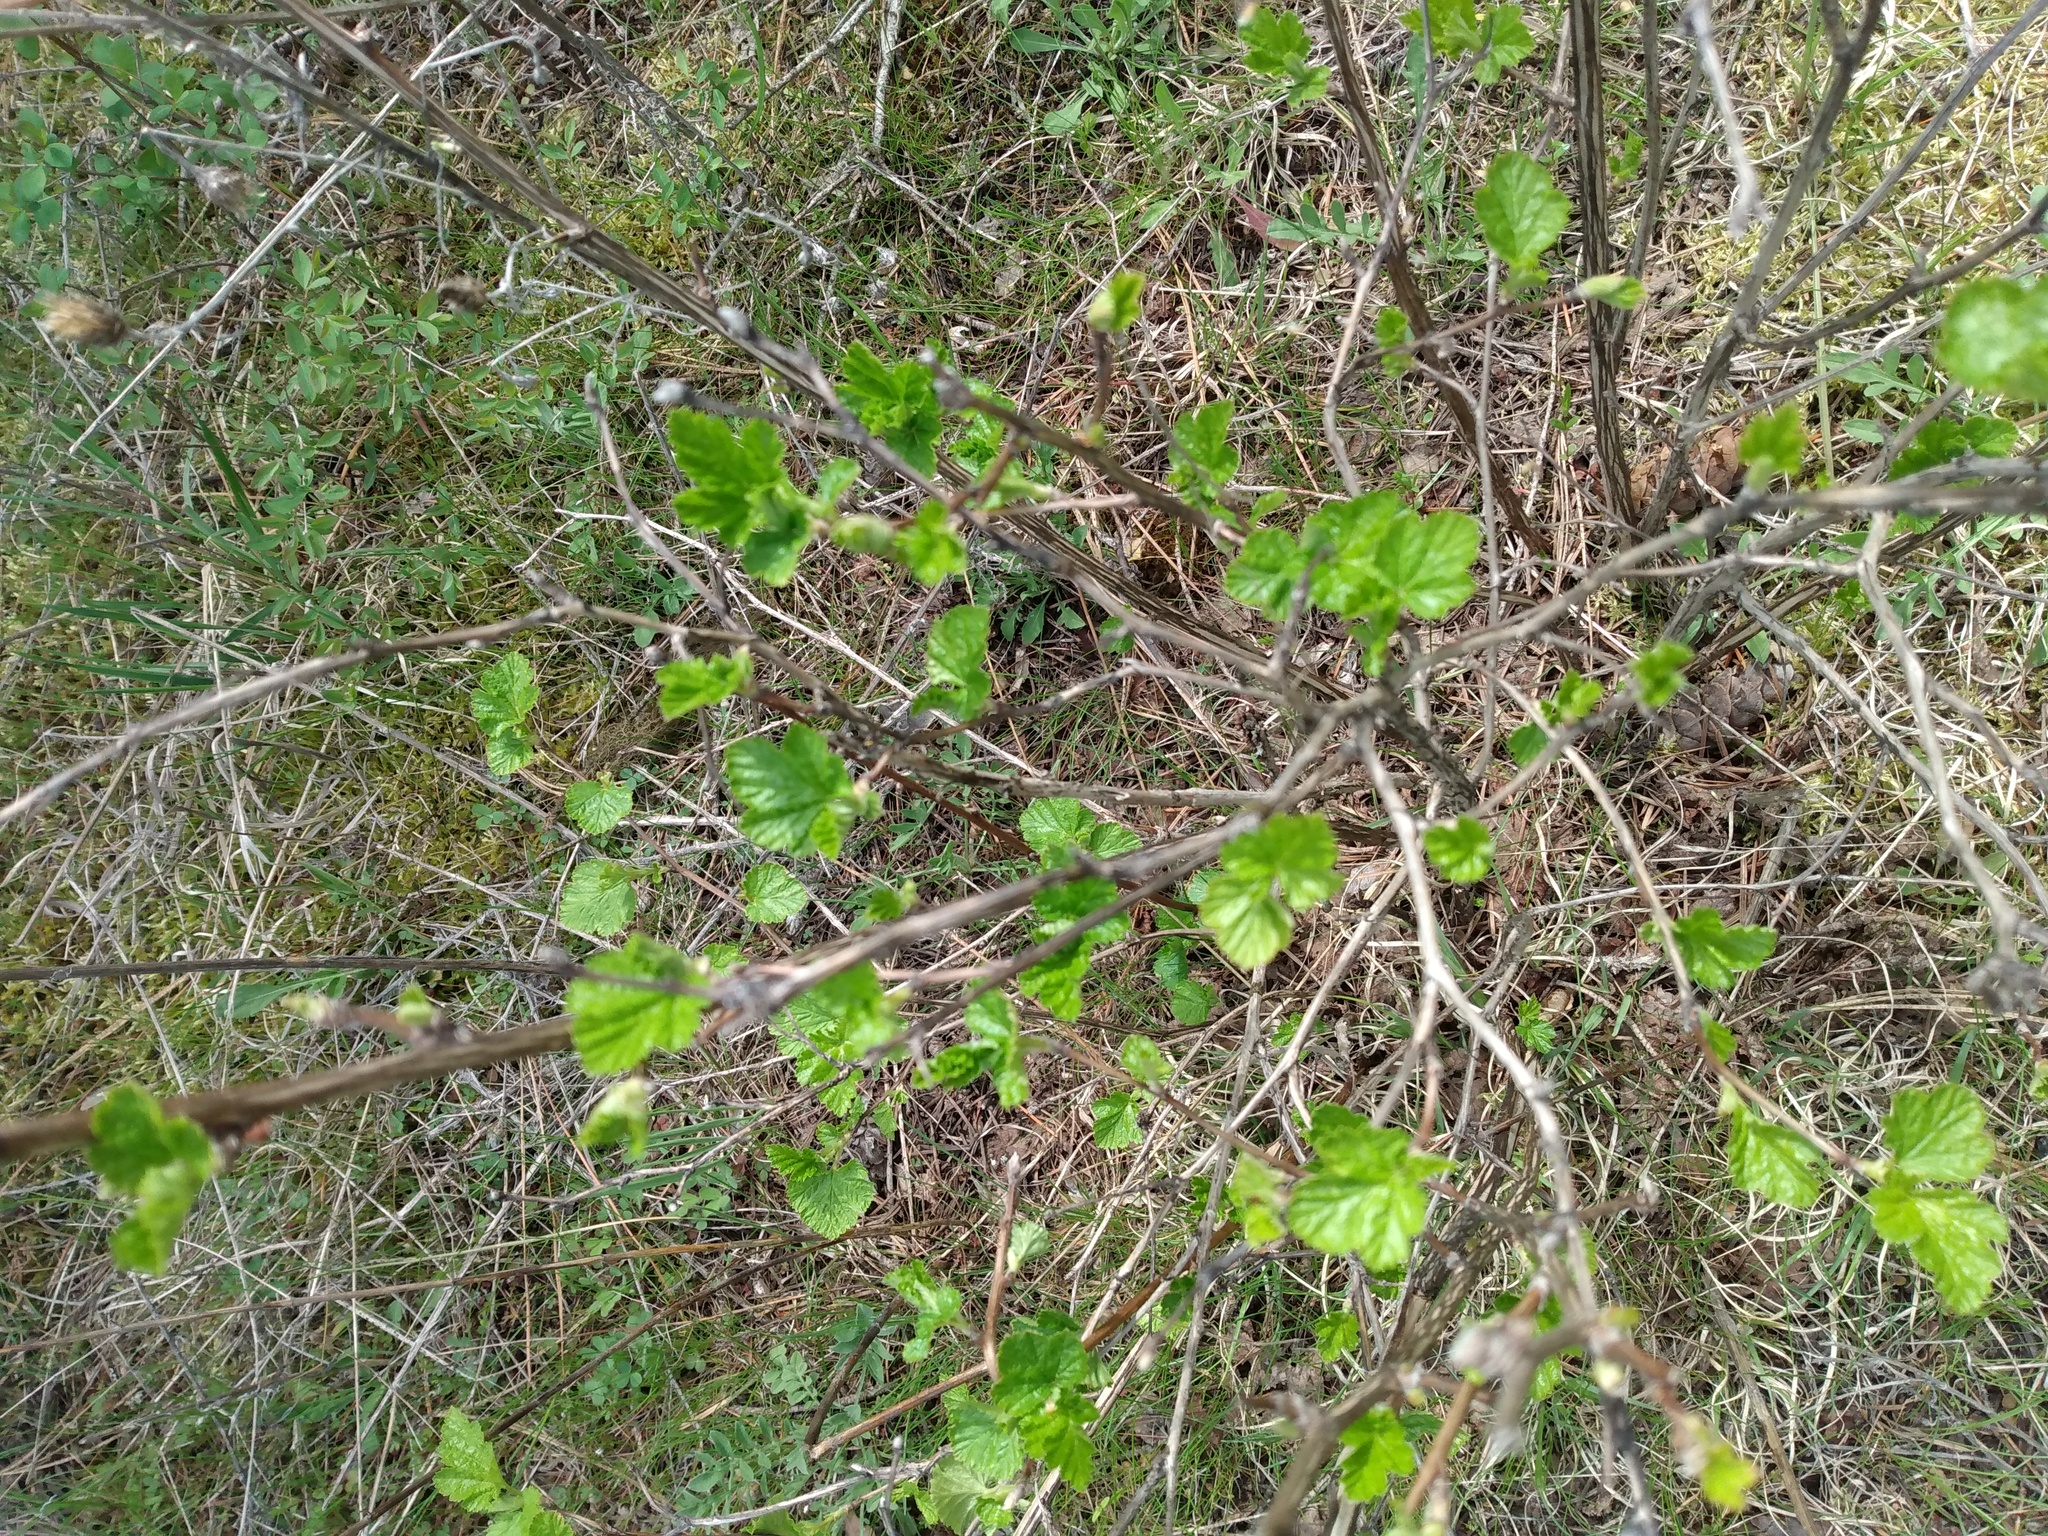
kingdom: Plantae
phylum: Tracheophyta
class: Magnoliopsida
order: Rosales
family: Rosaceae
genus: Physocarpus
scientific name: Physocarpus malvaceus
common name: Mallow ninebark
